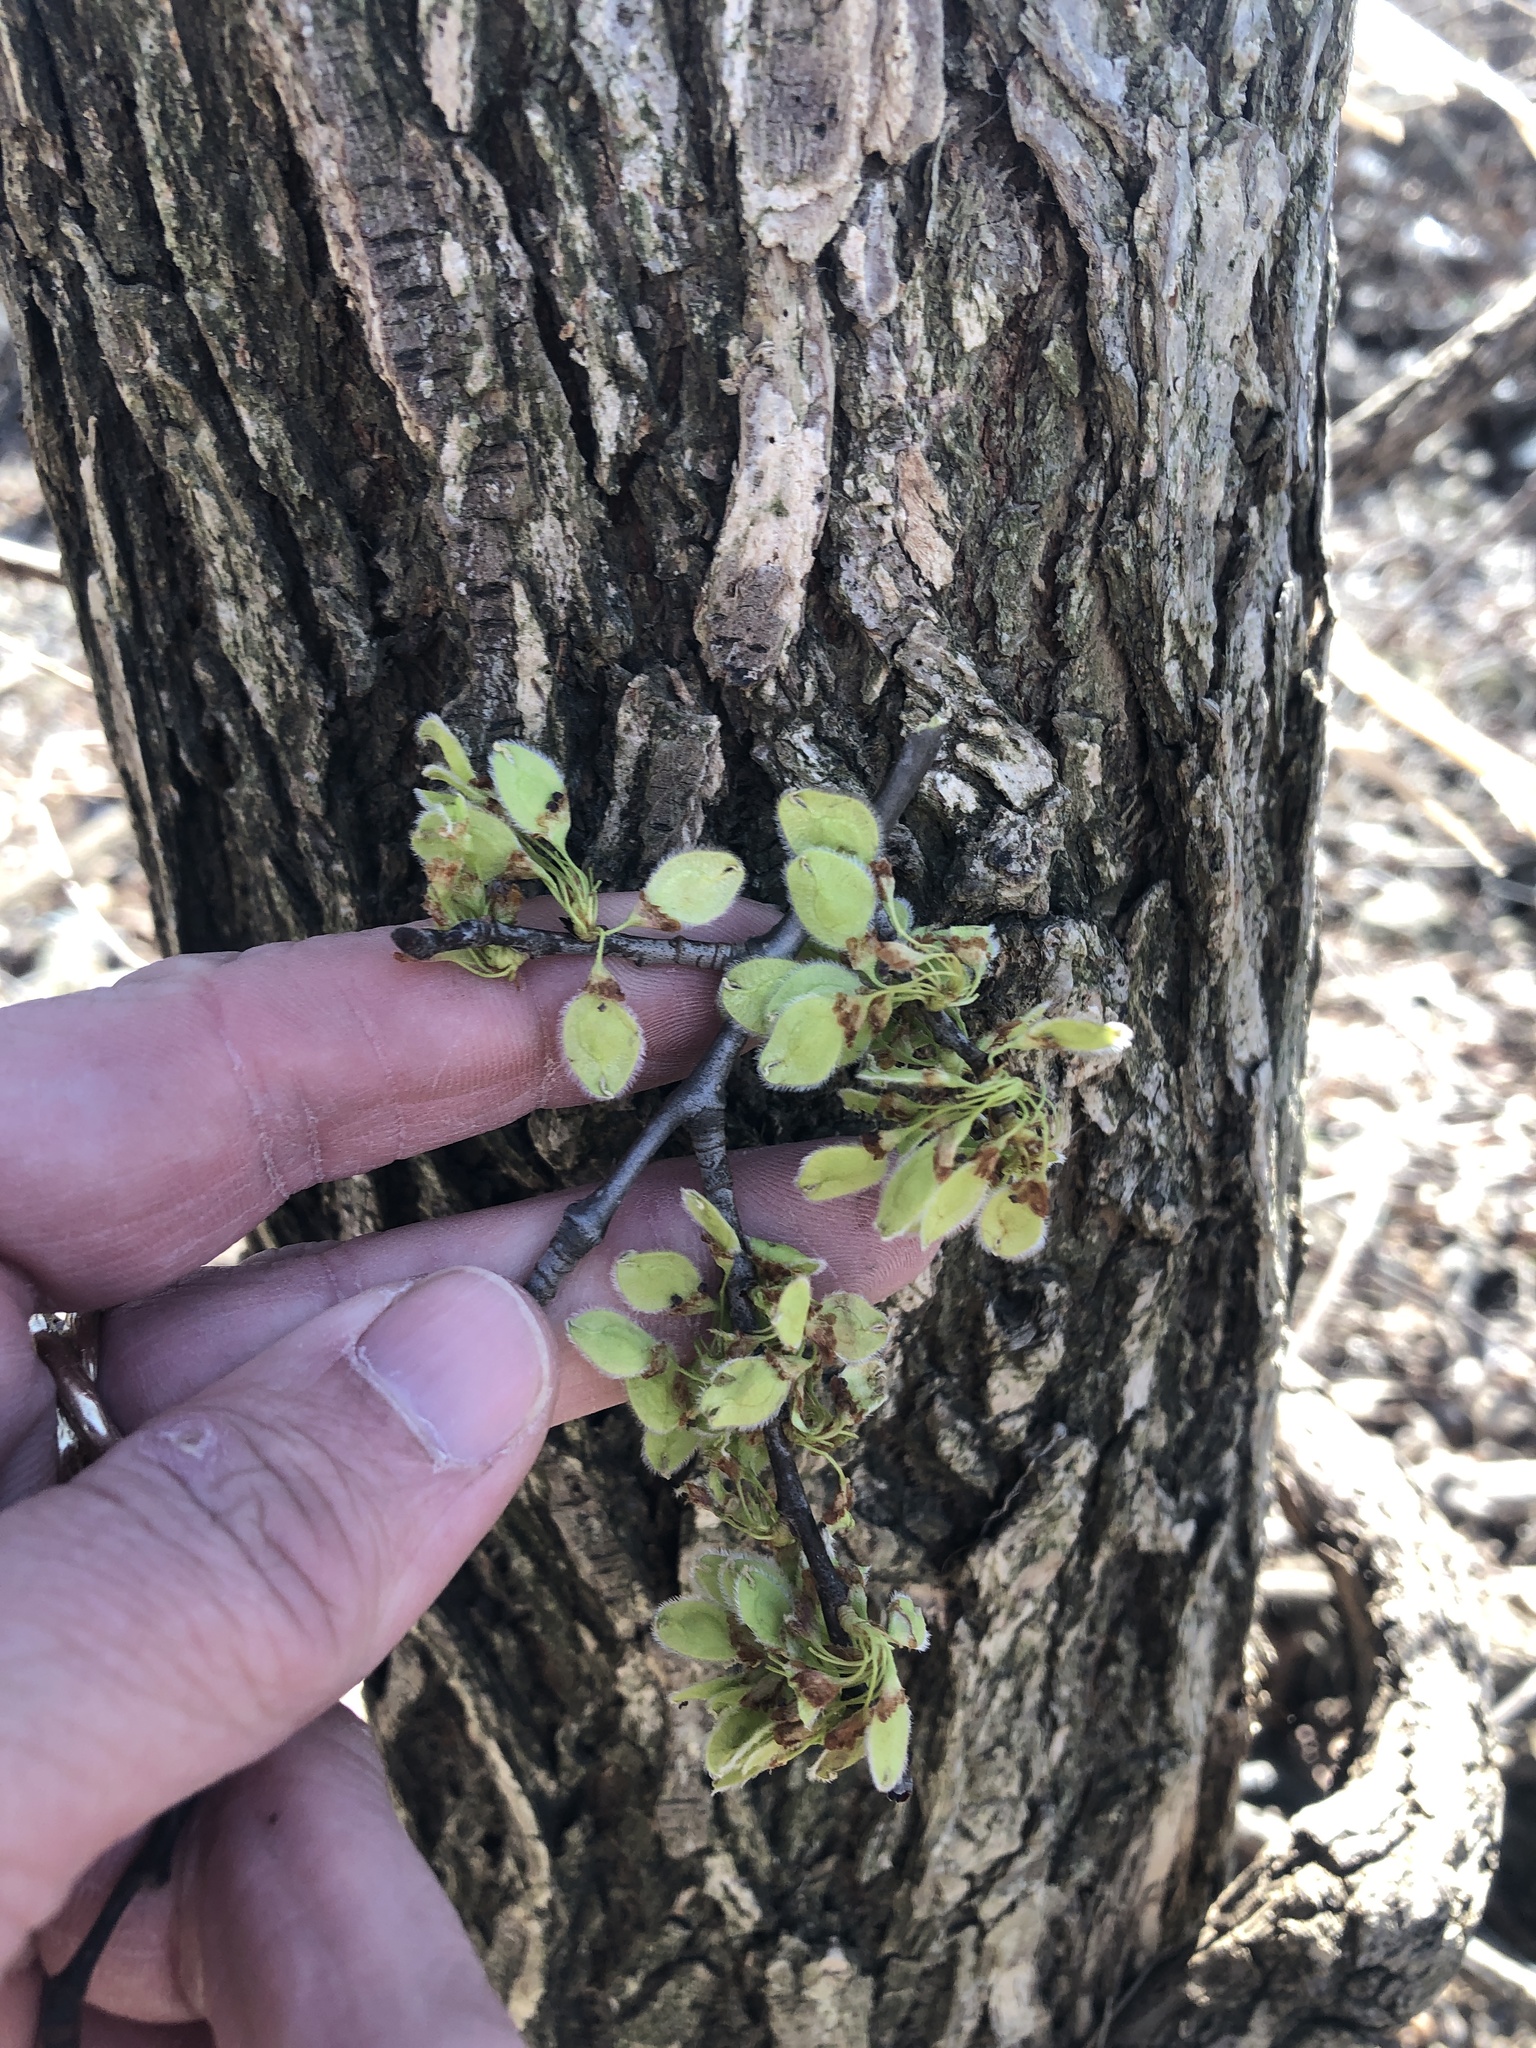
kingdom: Plantae
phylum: Tracheophyta
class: Magnoliopsida
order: Rosales
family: Ulmaceae
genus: Ulmus
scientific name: Ulmus americana
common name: American elm
